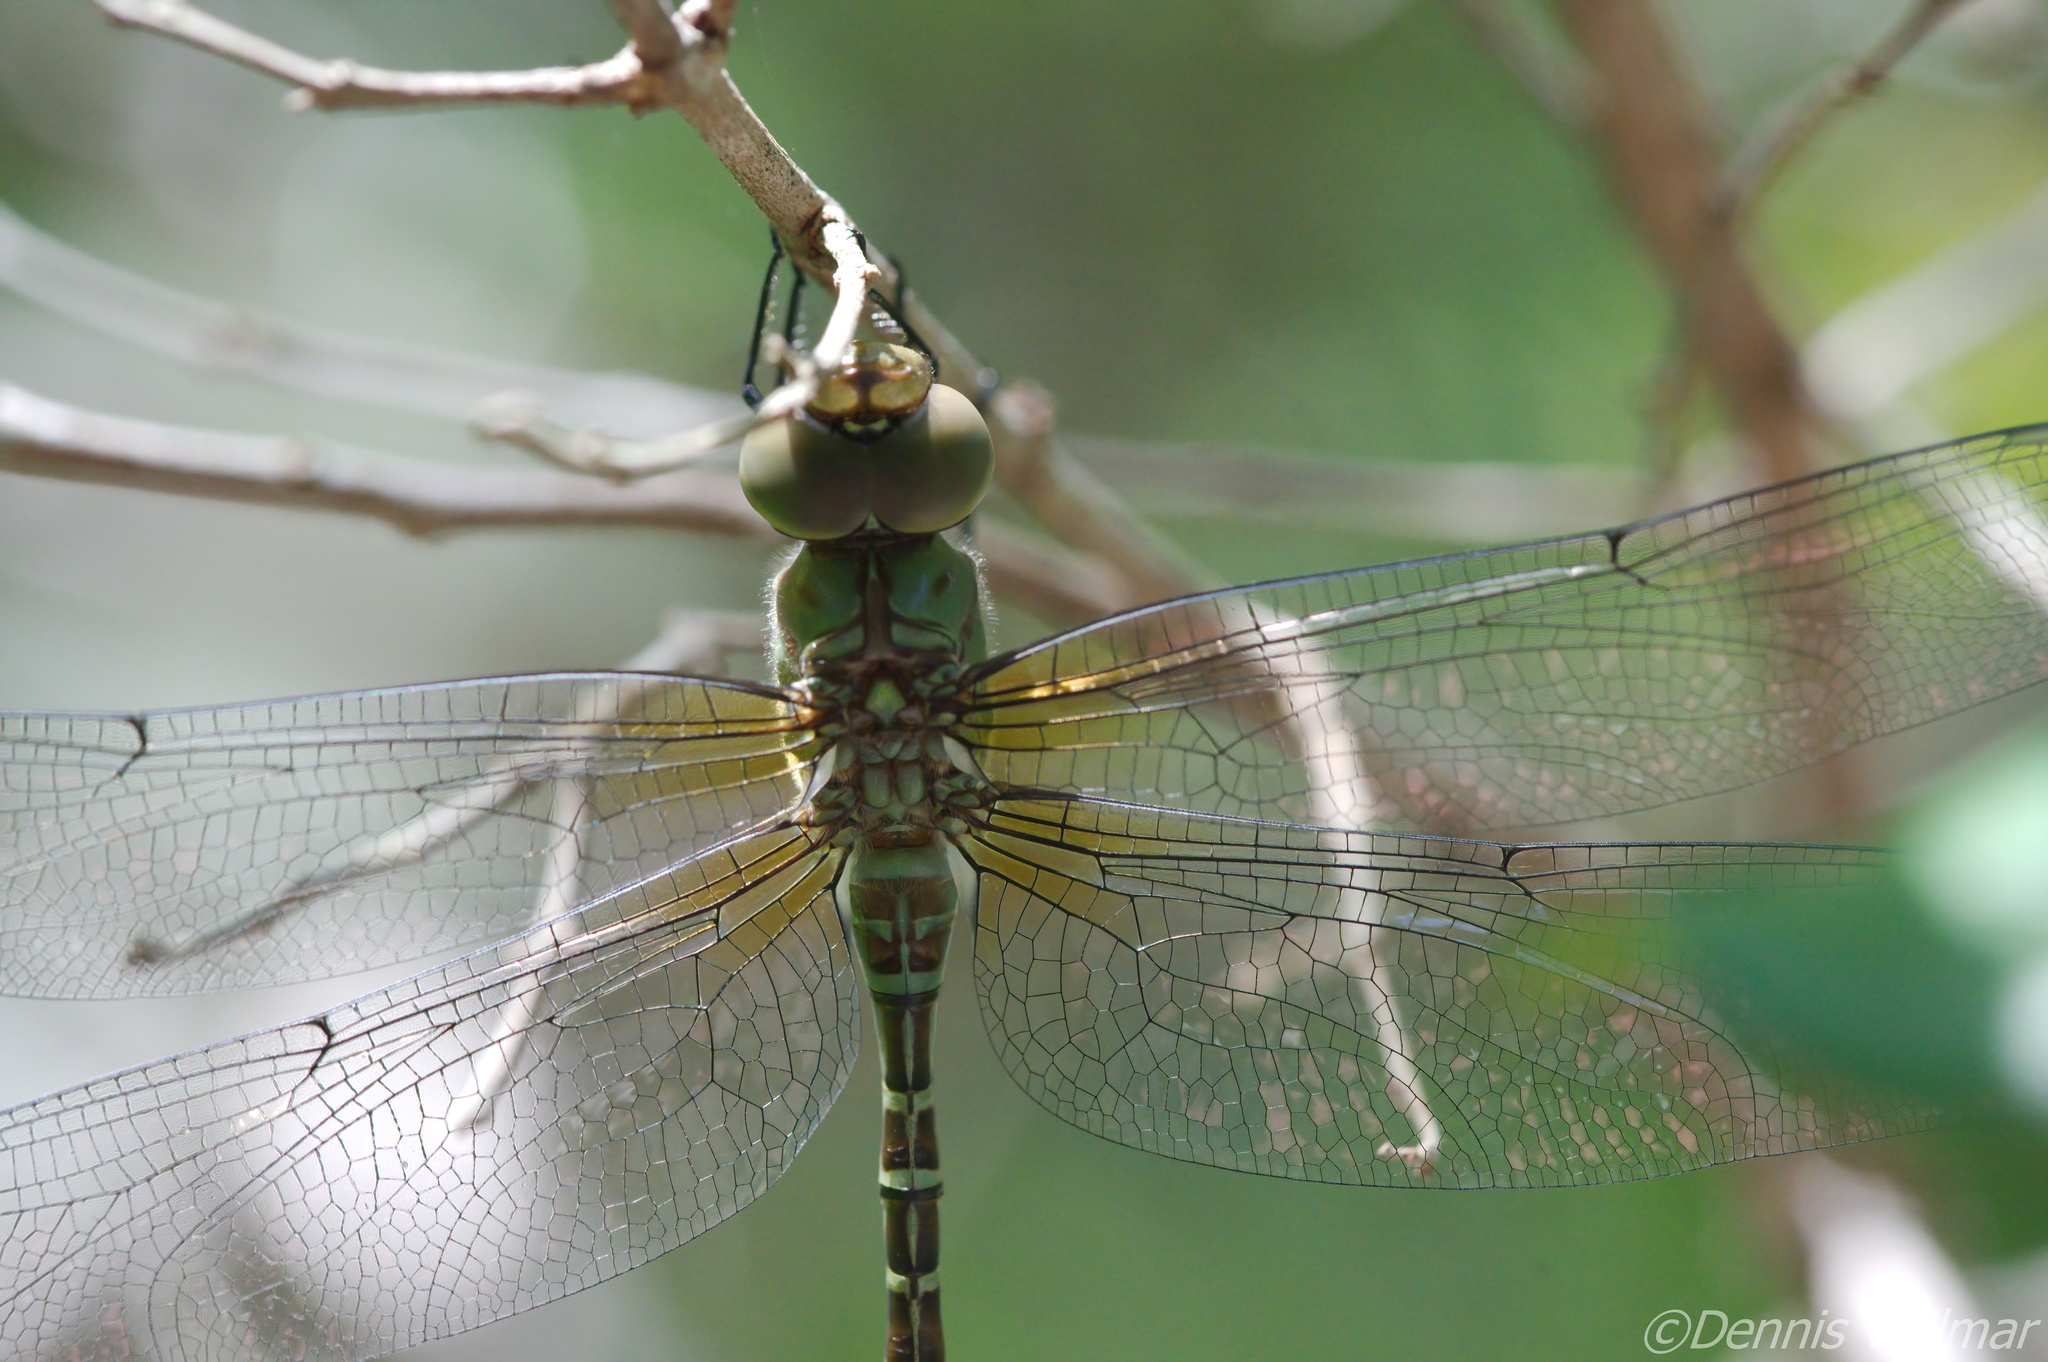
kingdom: Animalia
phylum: Arthropoda
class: Insecta
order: Odonata
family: Aeshnidae
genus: Coryphaeschna
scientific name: Coryphaeschna viriditas
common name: Mangrove darner
